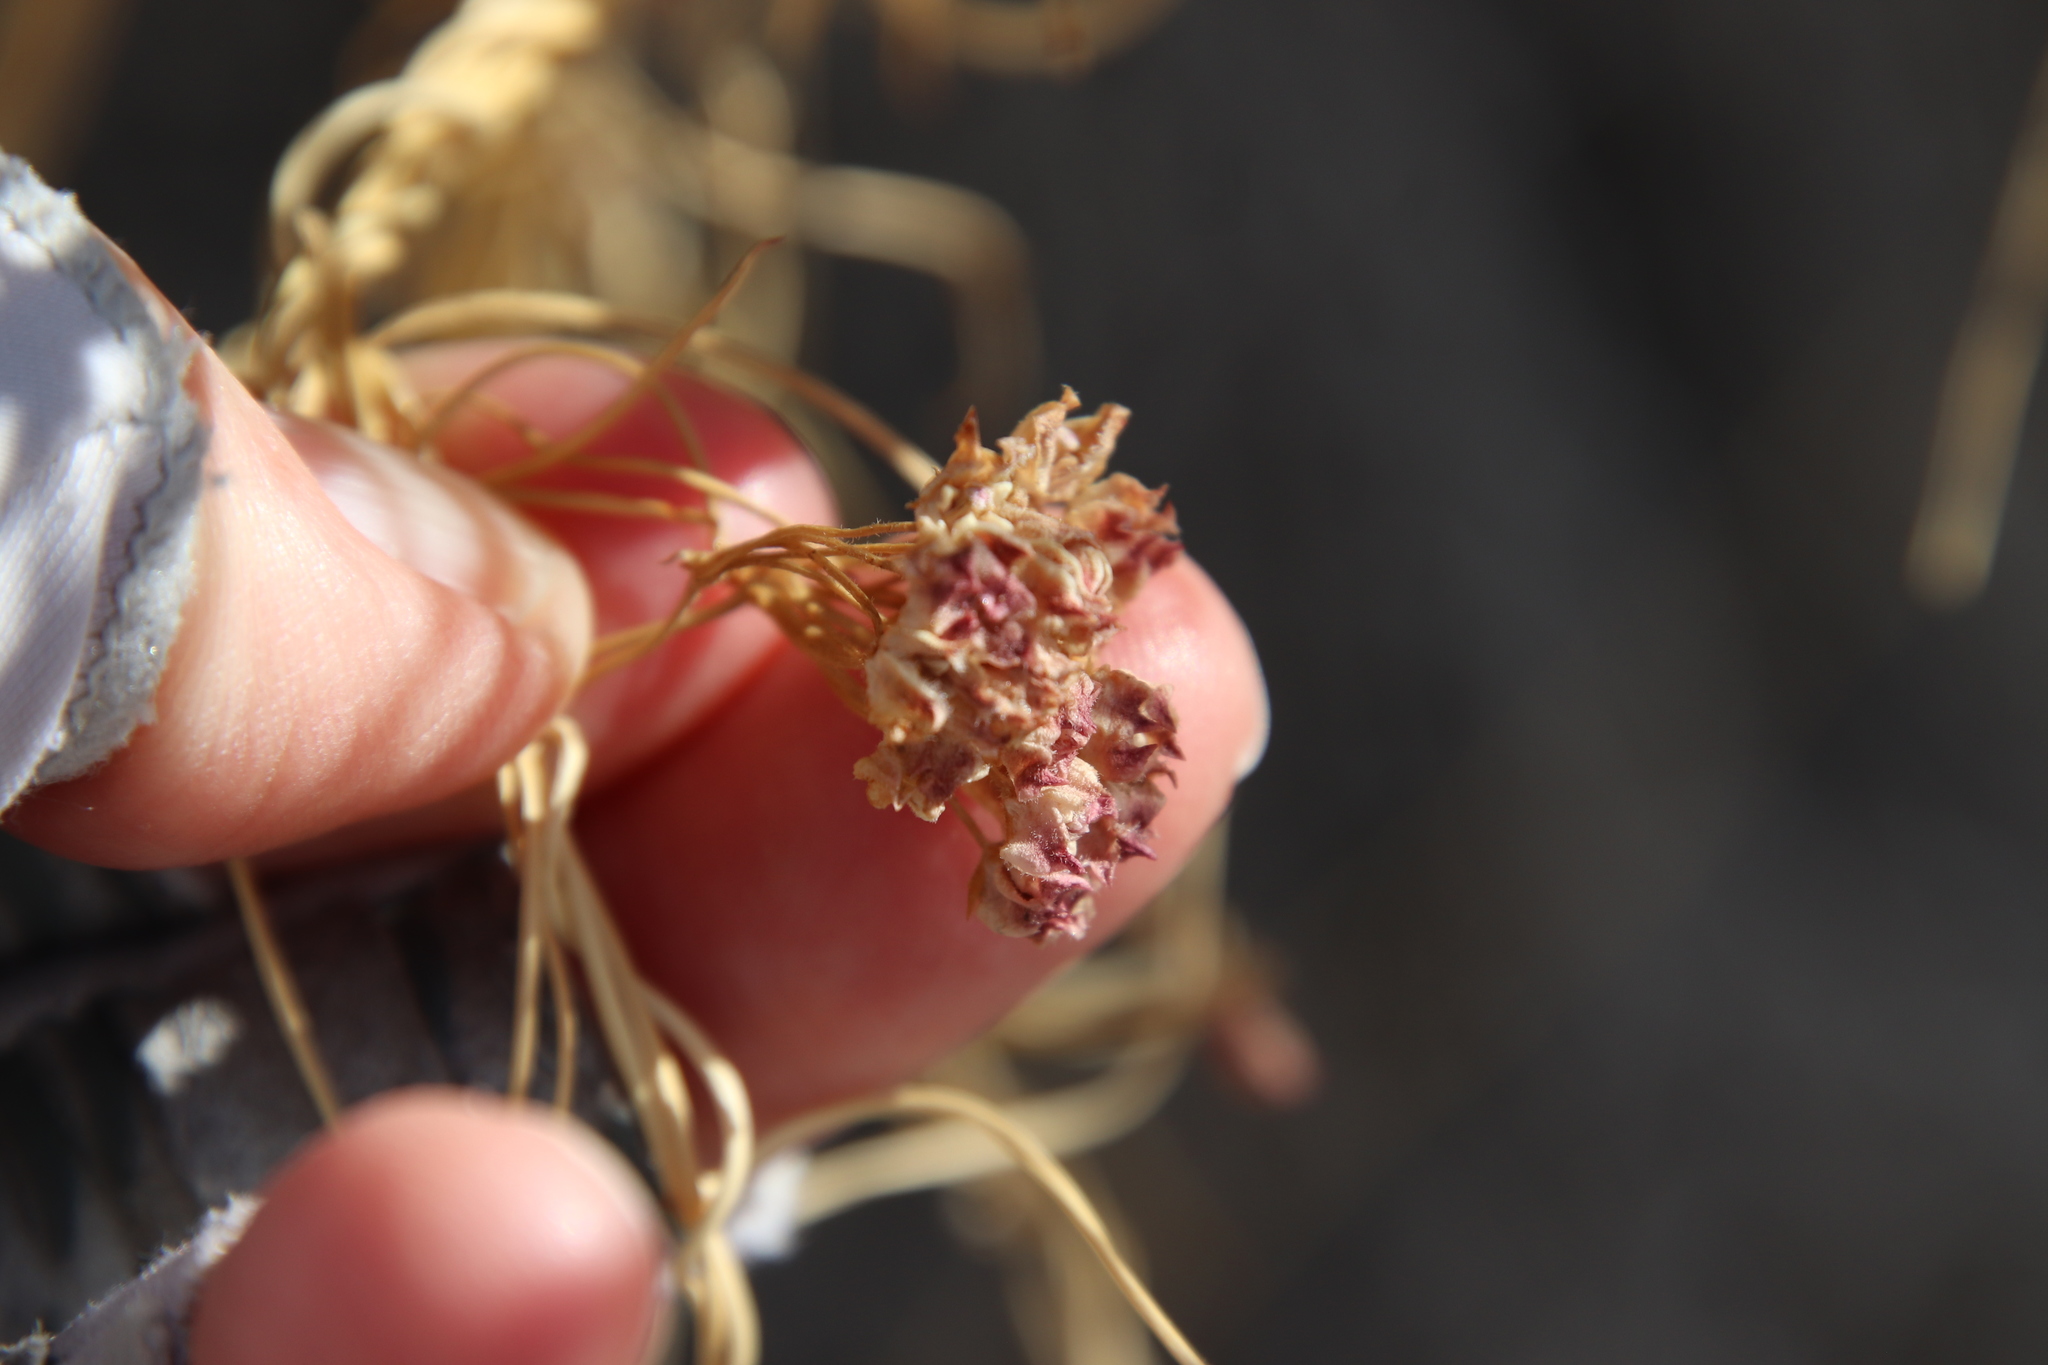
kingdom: Plantae
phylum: Tracheophyta
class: Magnoliopsida
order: Gentianales
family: Apocynaceae
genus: Funastrum
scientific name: Funastrum heterophyllum
